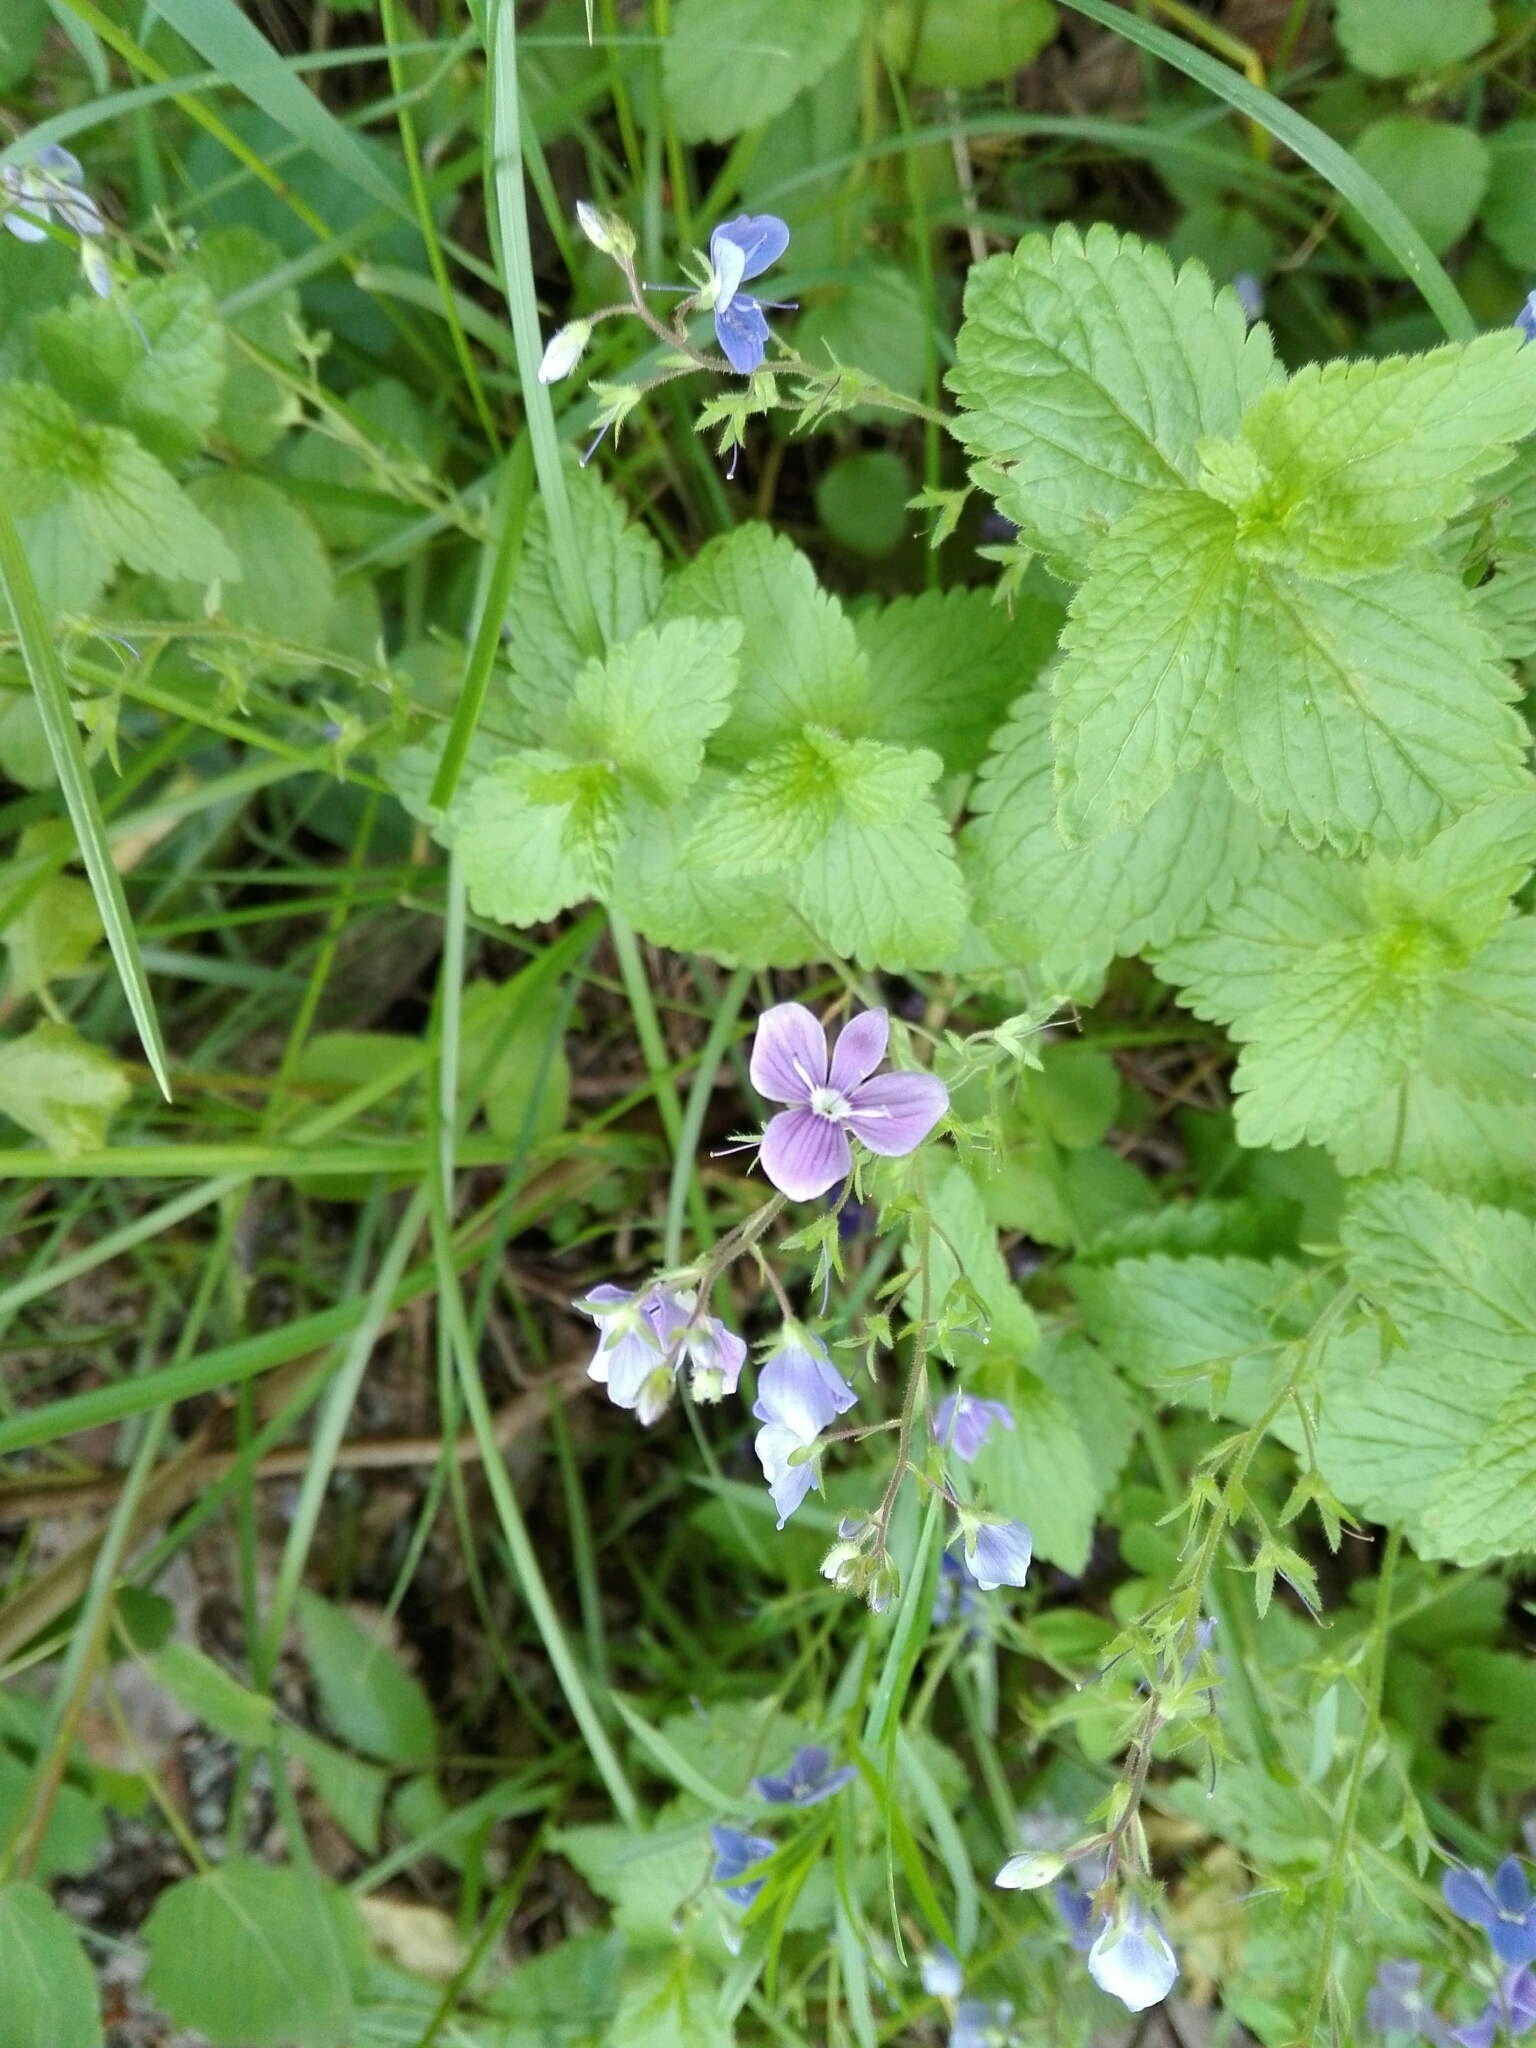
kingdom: Plantae
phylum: Tracheophyta
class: Magnoliopsida
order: Lamiales
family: Plantaginaceae
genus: Veronica
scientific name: Veronica chamaedrys
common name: Germander speedwell
